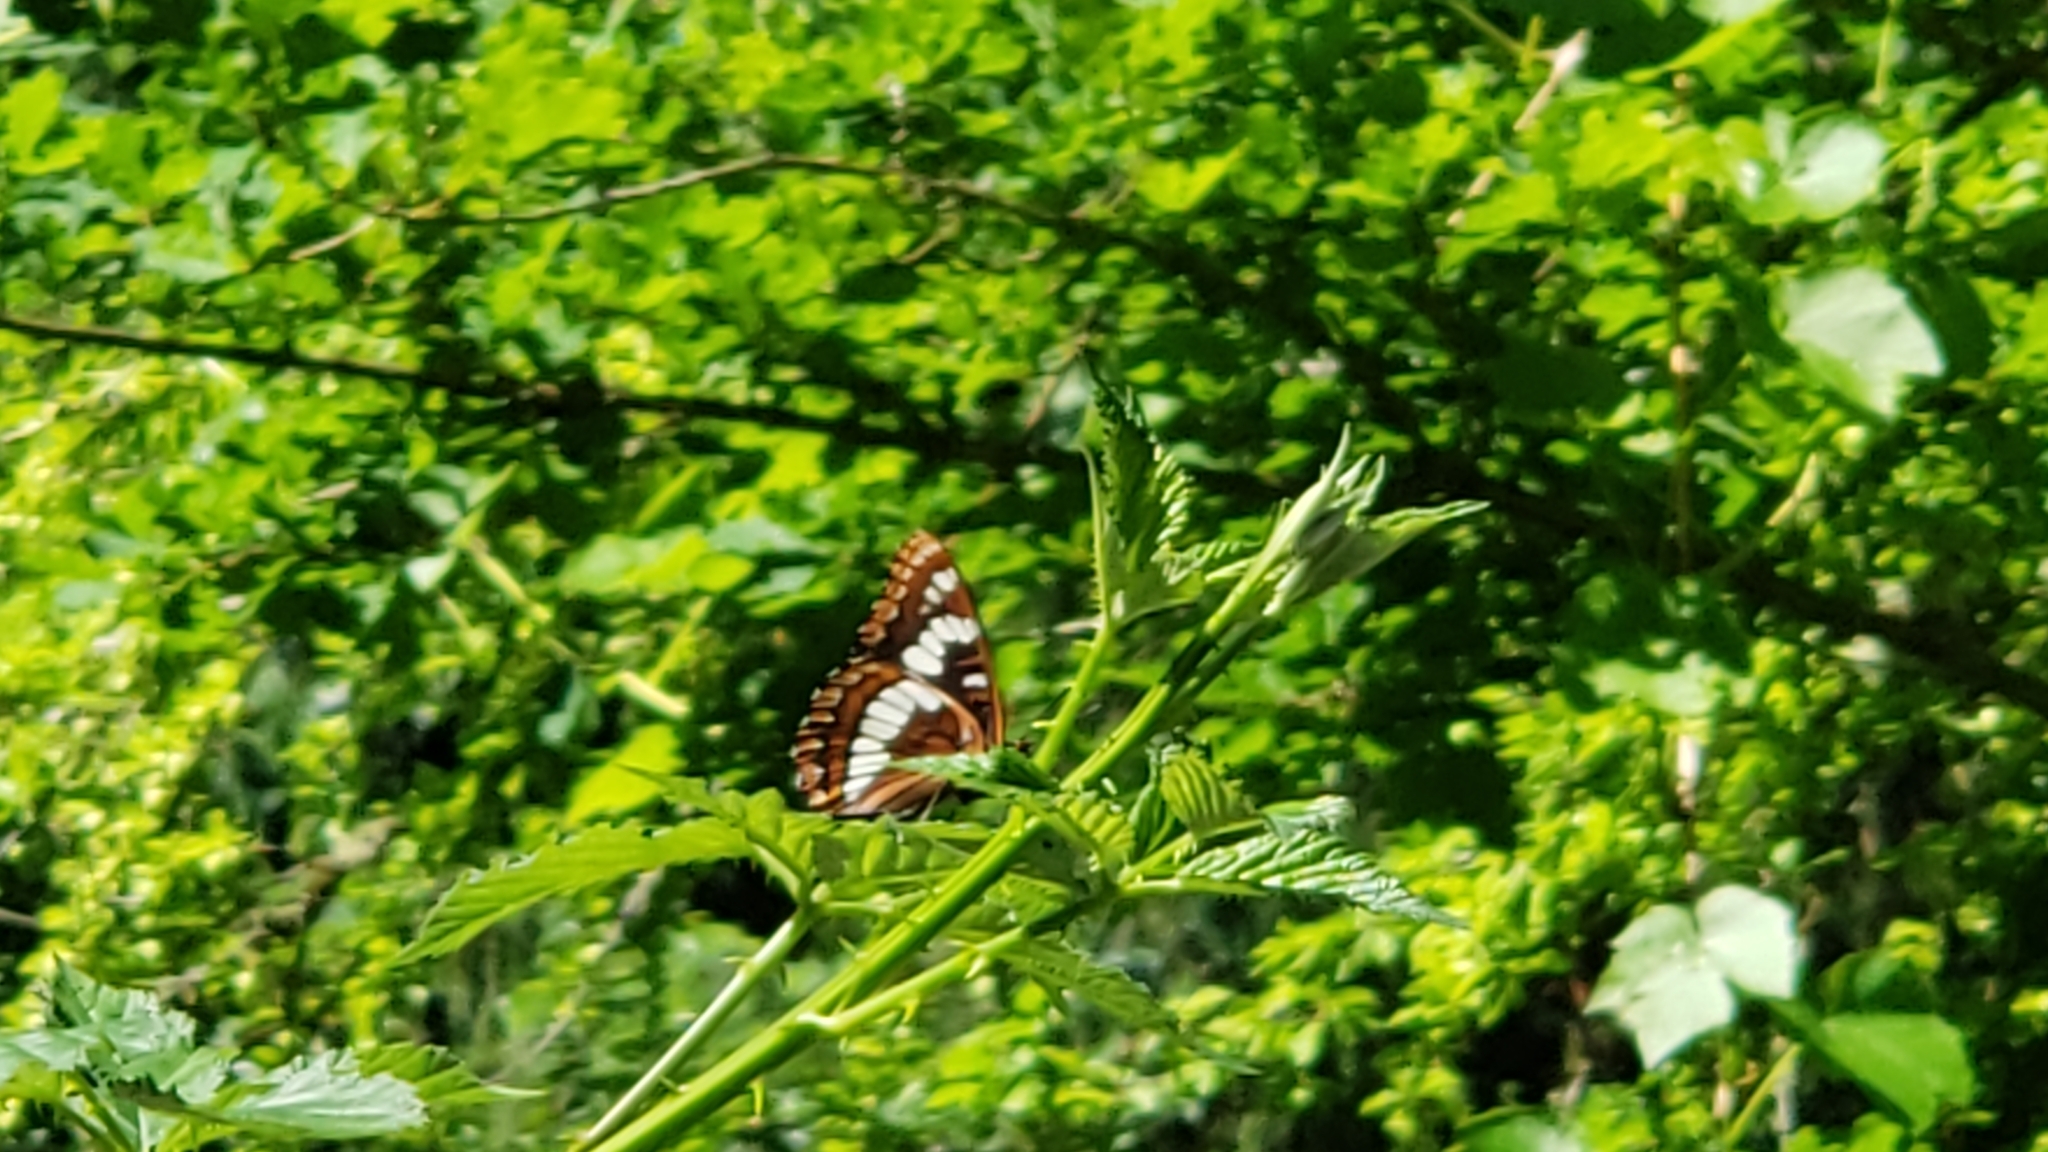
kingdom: Animalia
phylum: Arthropoda
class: Insecta
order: Lepidoptera
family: Nymphalidae
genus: Limenitis
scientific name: Limenitis lorquini
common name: Lorquin's admiral
